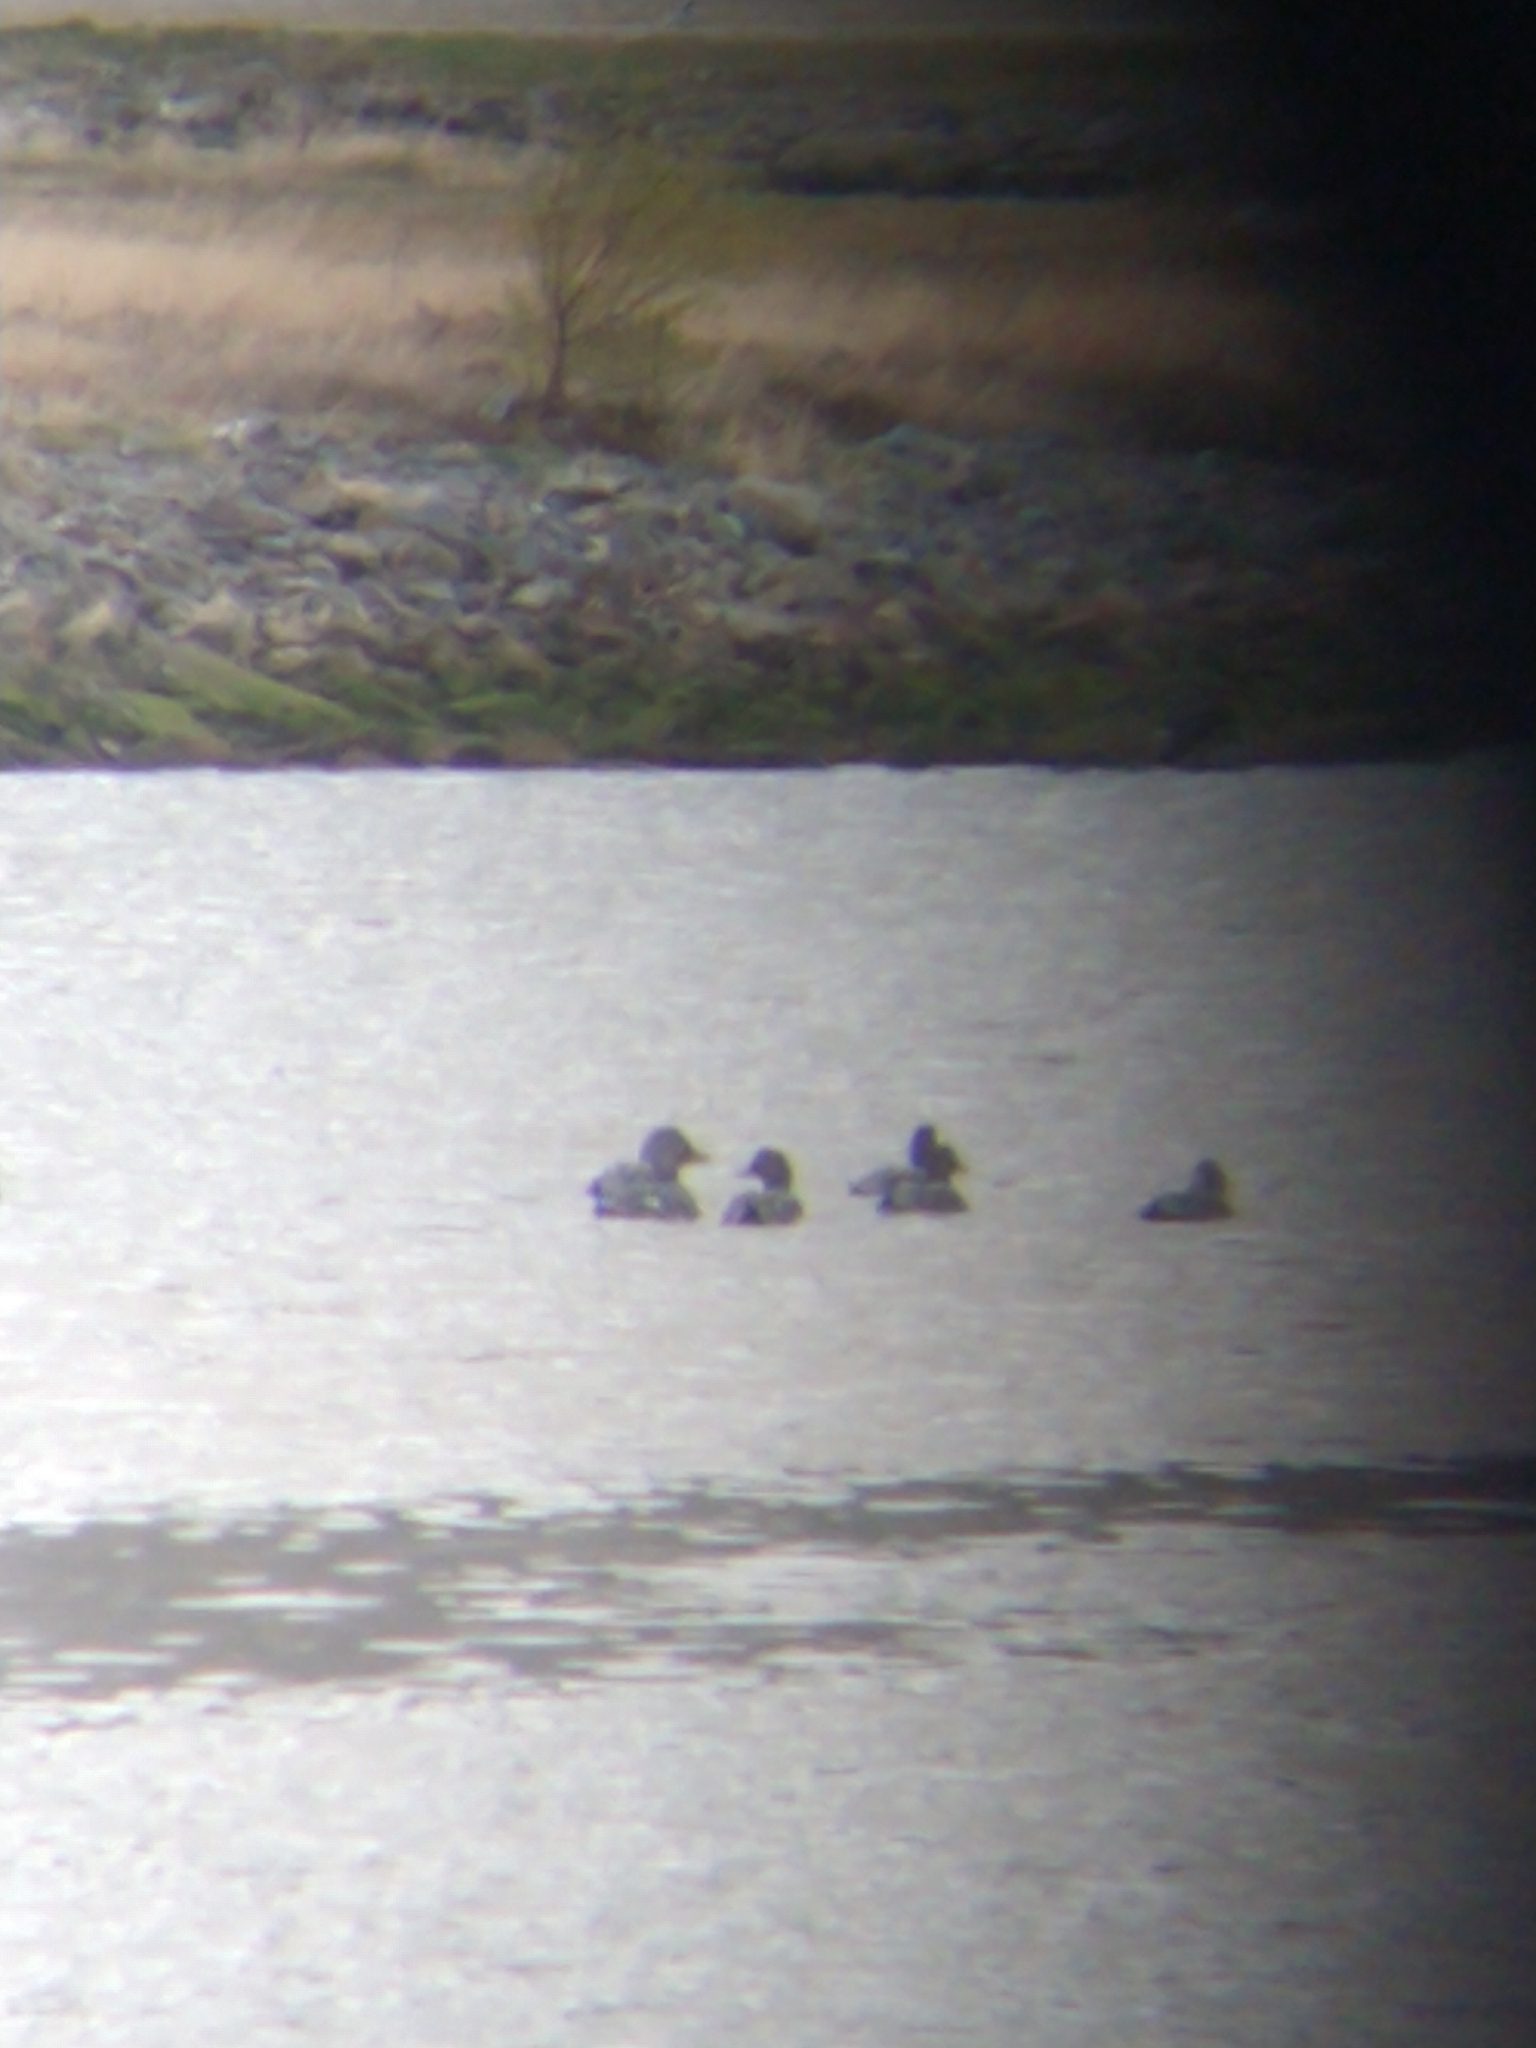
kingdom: Animalia
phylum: Chordata
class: Aves
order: Anseriformes
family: Anatidae
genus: Tachyeres
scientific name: Tachyeres patachonicus
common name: Flying steamer duck
